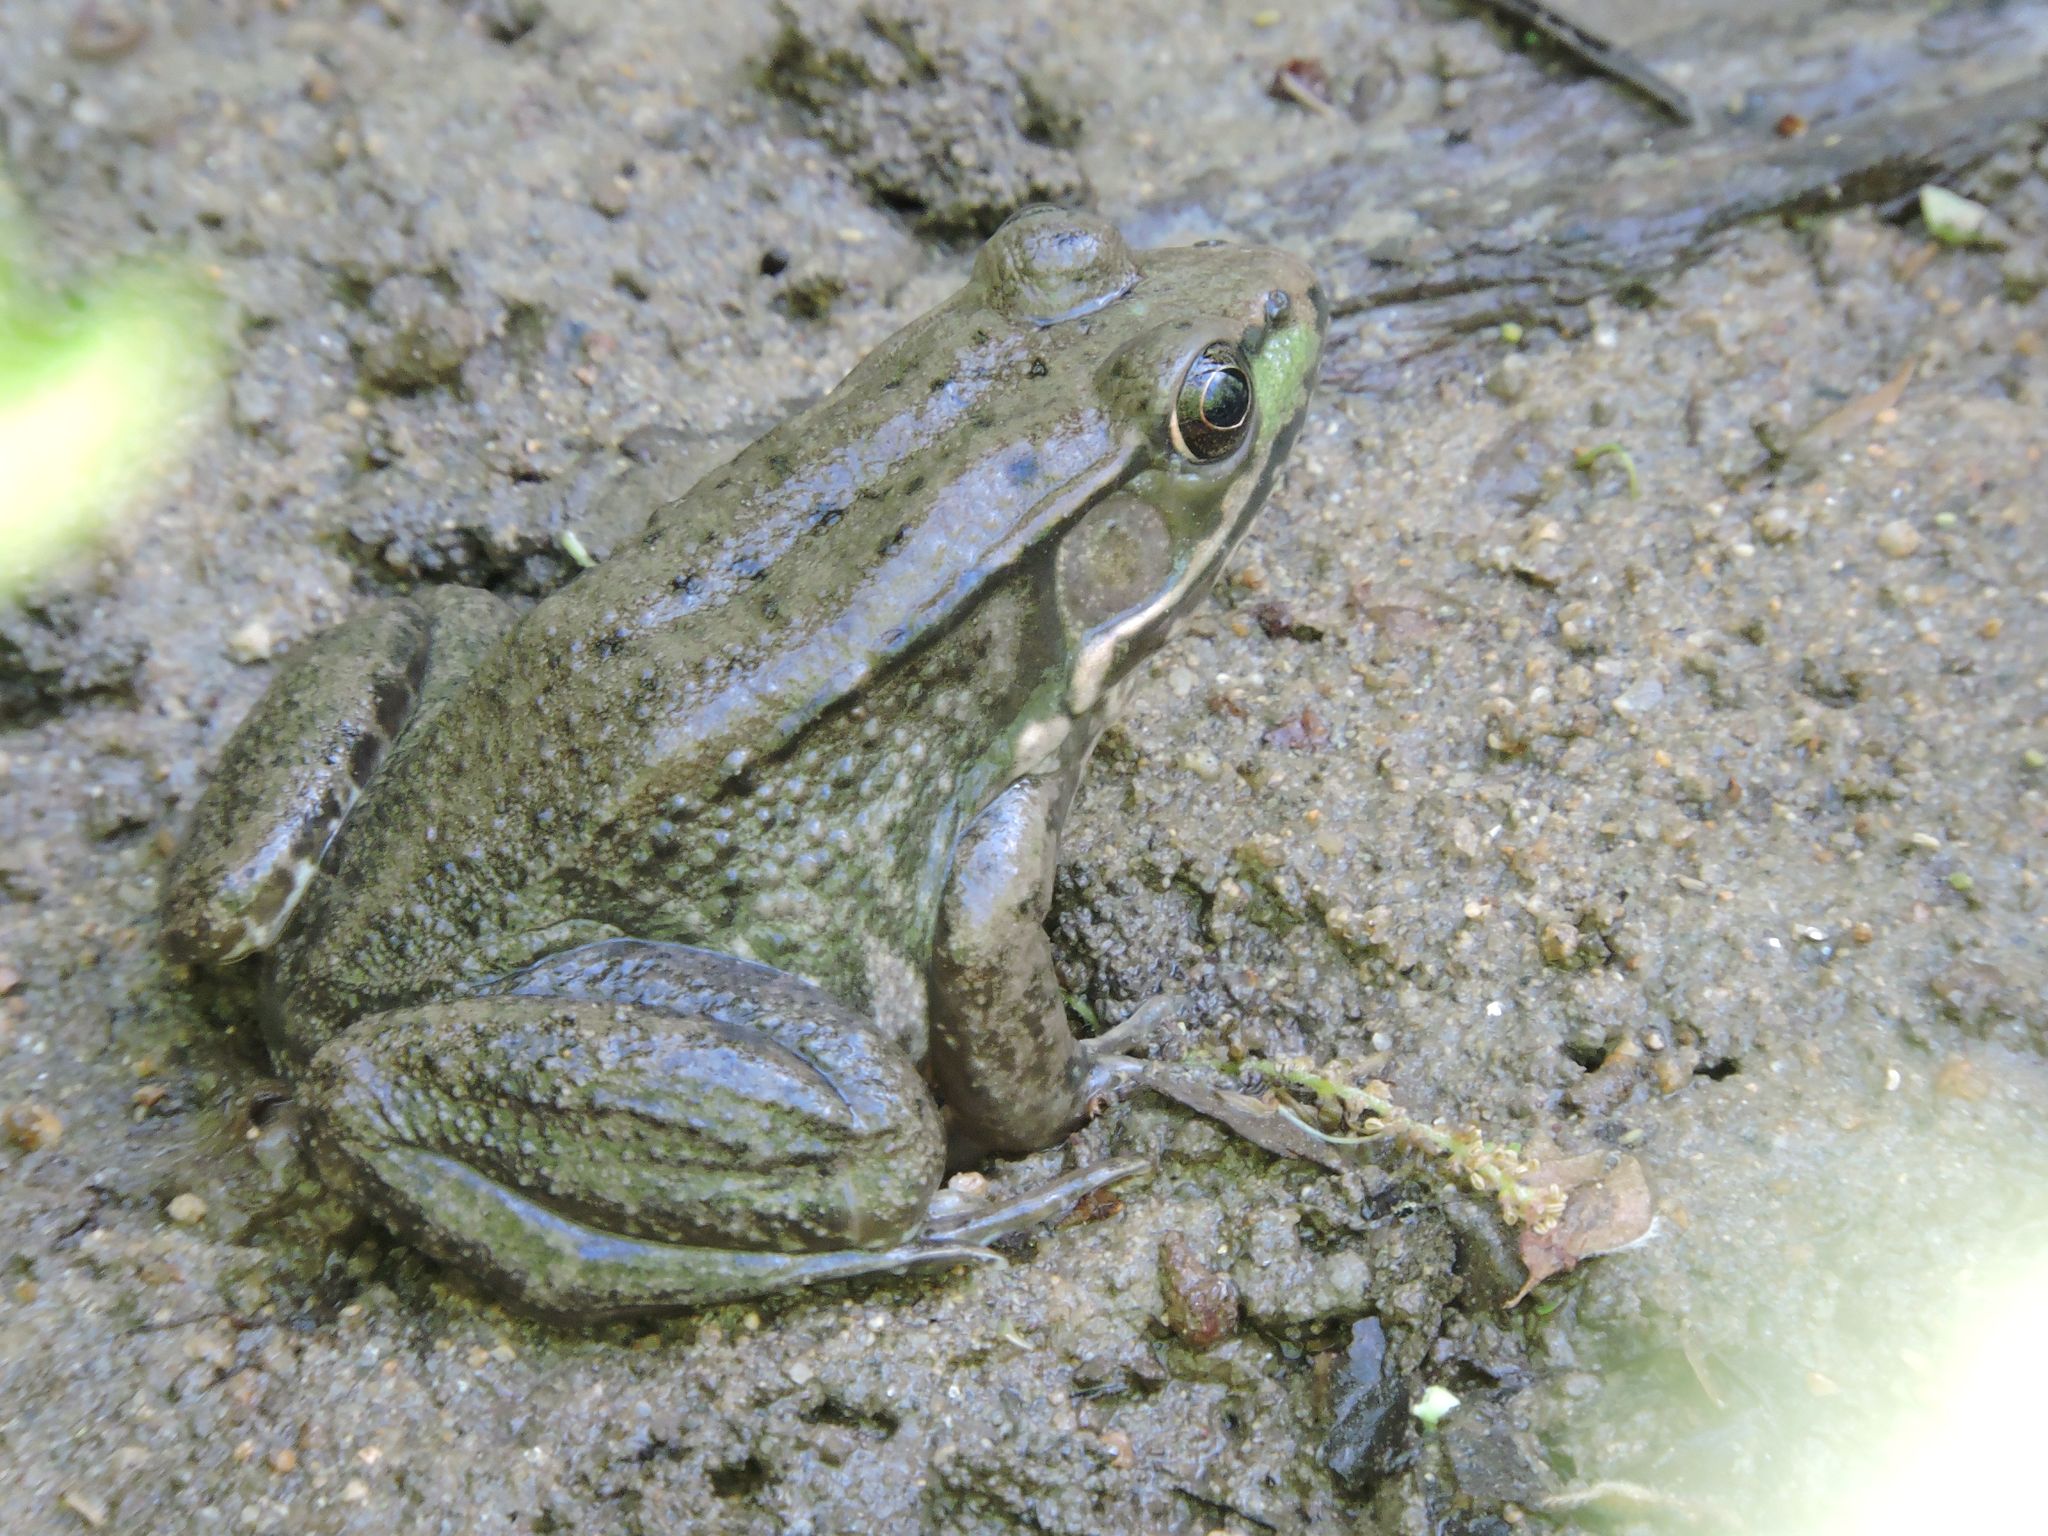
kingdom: Animalia
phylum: Chordata
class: Amphibia
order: Anura
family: Ranidae
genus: Lithobates
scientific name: Lithobates clamitans
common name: Green frog
